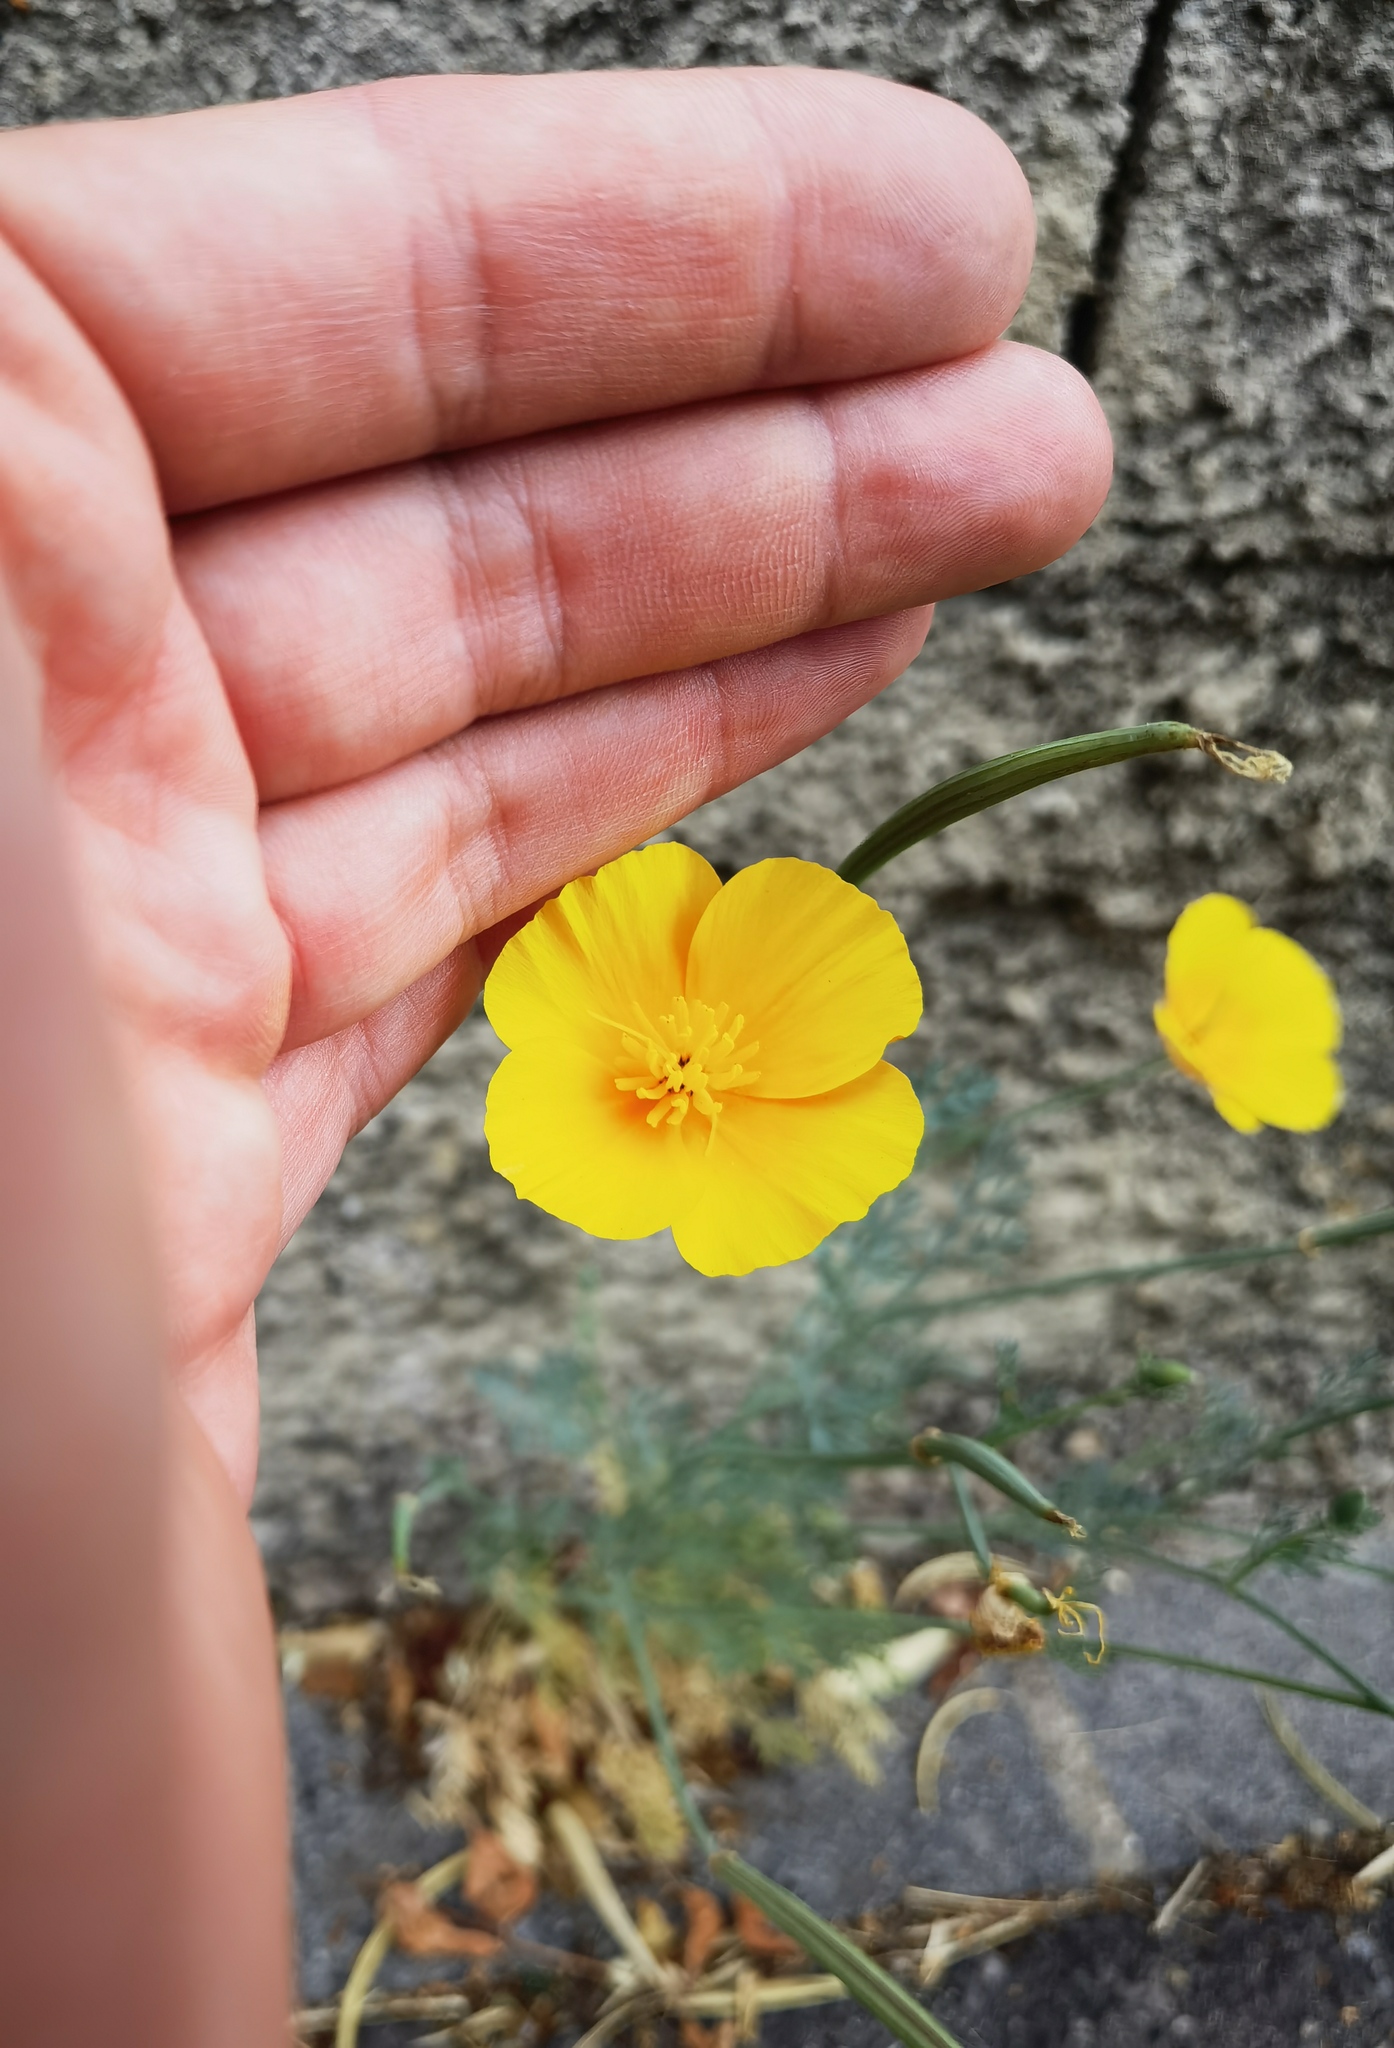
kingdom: Plantae
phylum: Tracheophyta
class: Magnoliopsida
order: Ranunculales
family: Papaveraceae
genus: Eschscholzia
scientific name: Eschscholzia californica
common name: California poppy
